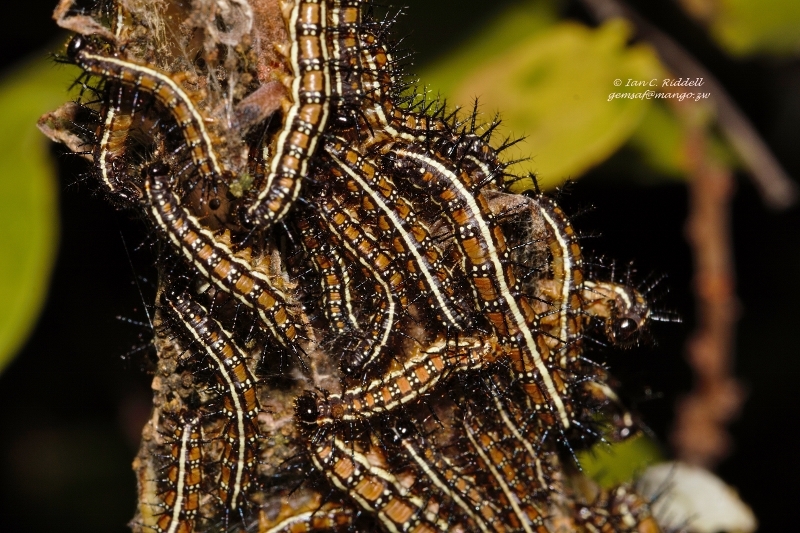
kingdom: Animalia
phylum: Arthropoda
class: Insecta
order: Lepidoptera
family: Nymphalidae
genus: Acraea
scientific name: Acraea Telchinia burni
